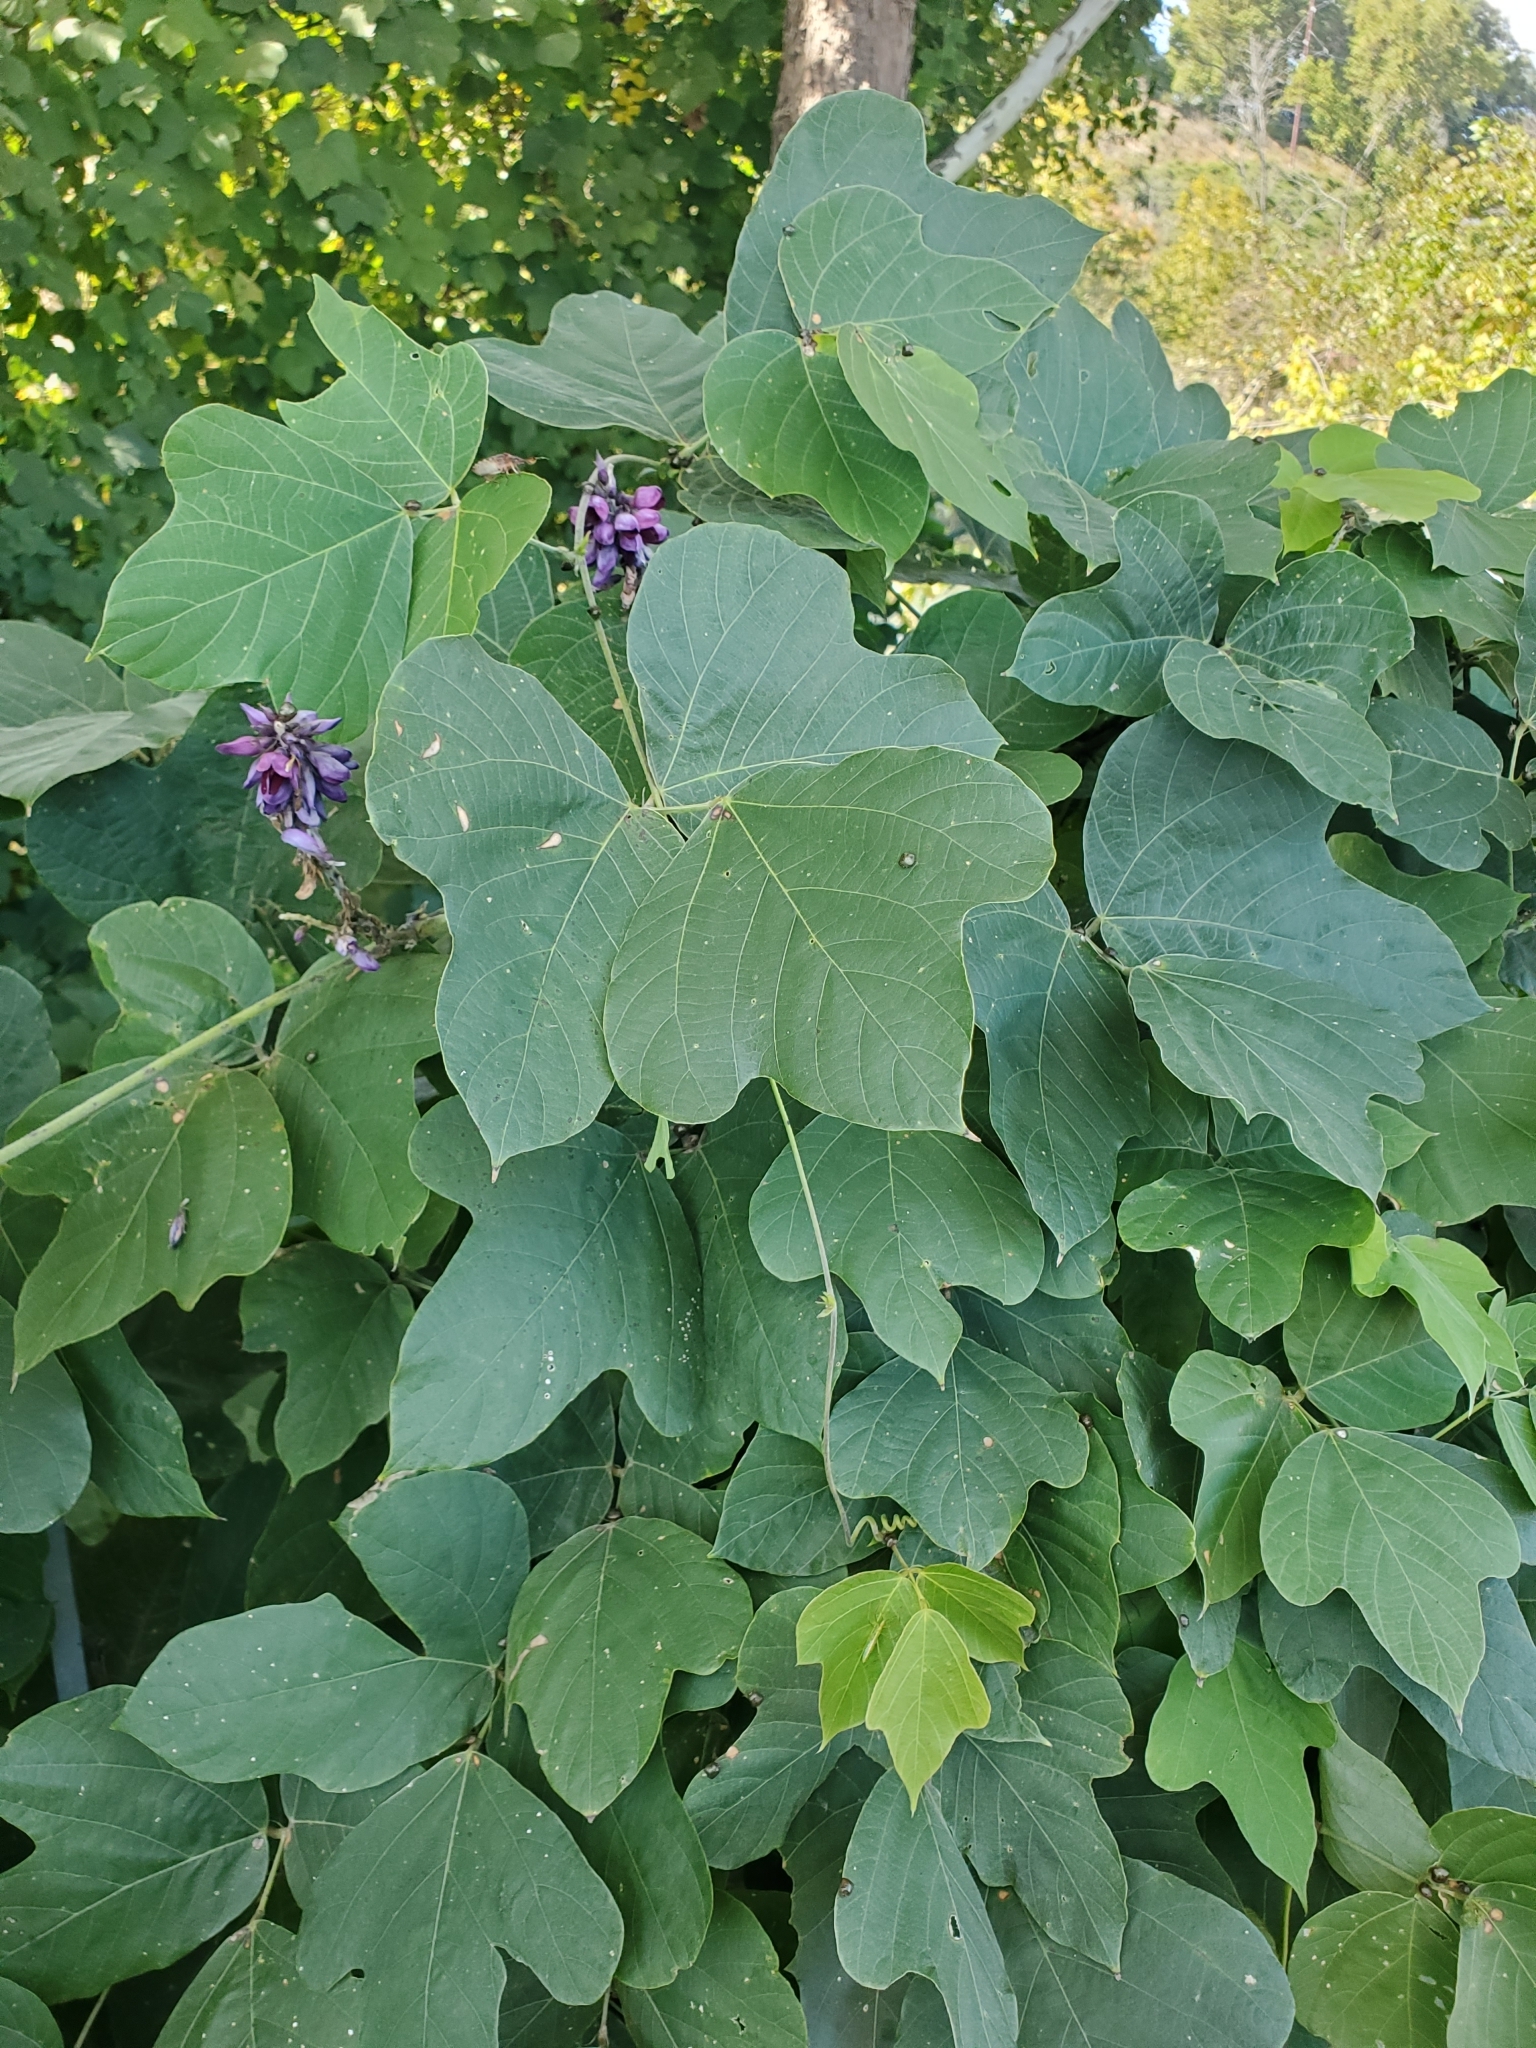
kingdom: Plantae
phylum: Tracheophyta
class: Magnoliopsida
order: Fabales
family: Fabaceae
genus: Pueraria
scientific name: Pueraria montana
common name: Kudzu
